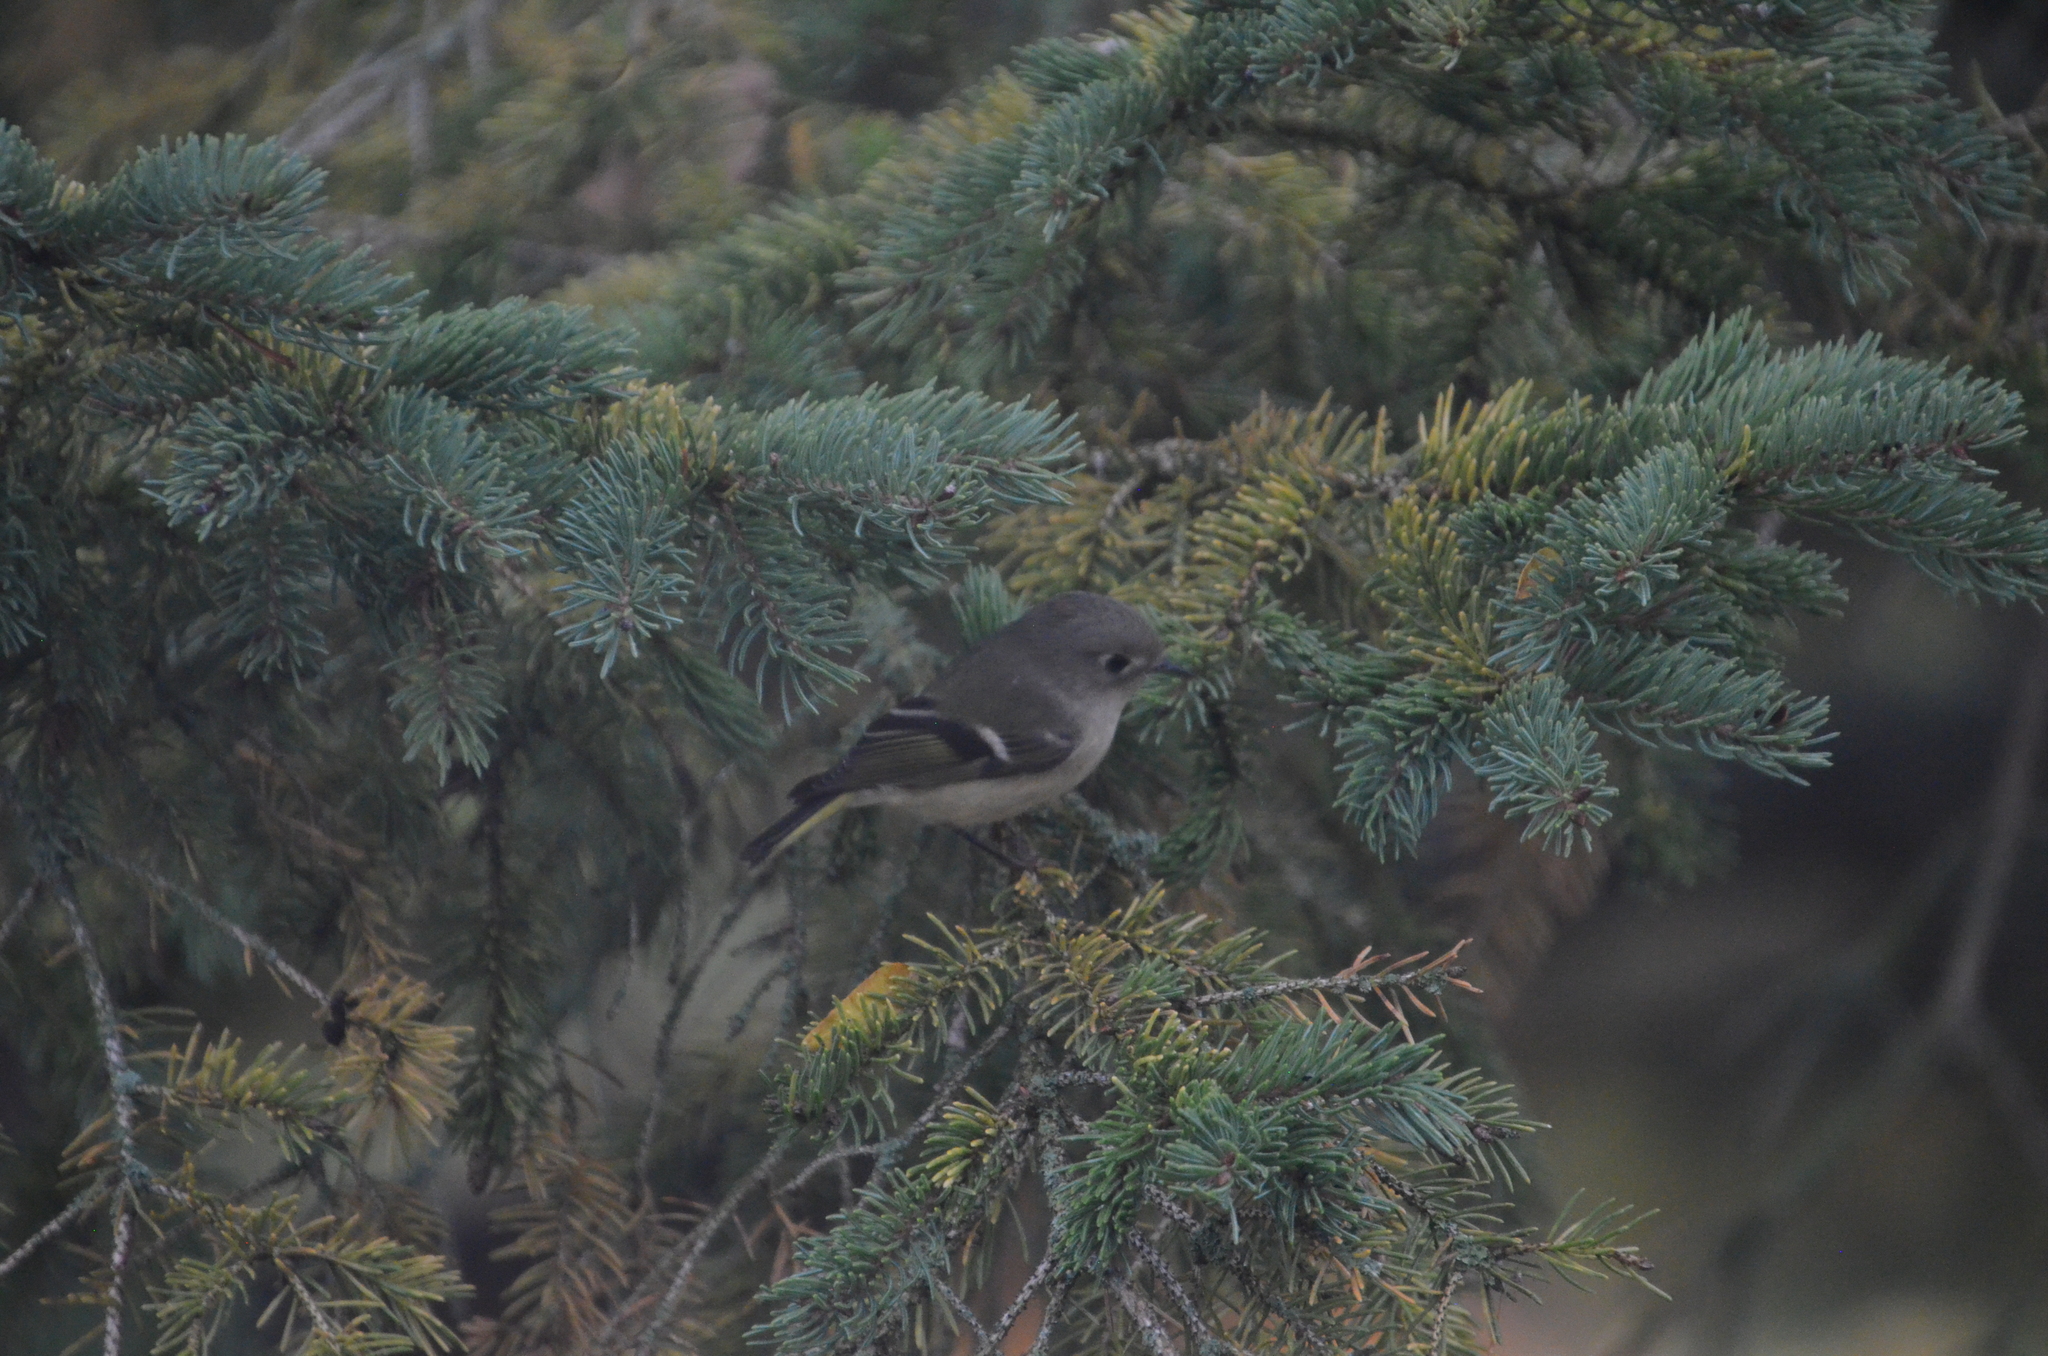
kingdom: Animalia
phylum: Chordata
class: Aves
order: Passeriformes
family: Regulidae
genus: Regulus
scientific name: Regulus calendula
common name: Ruby-crowned kinglet
